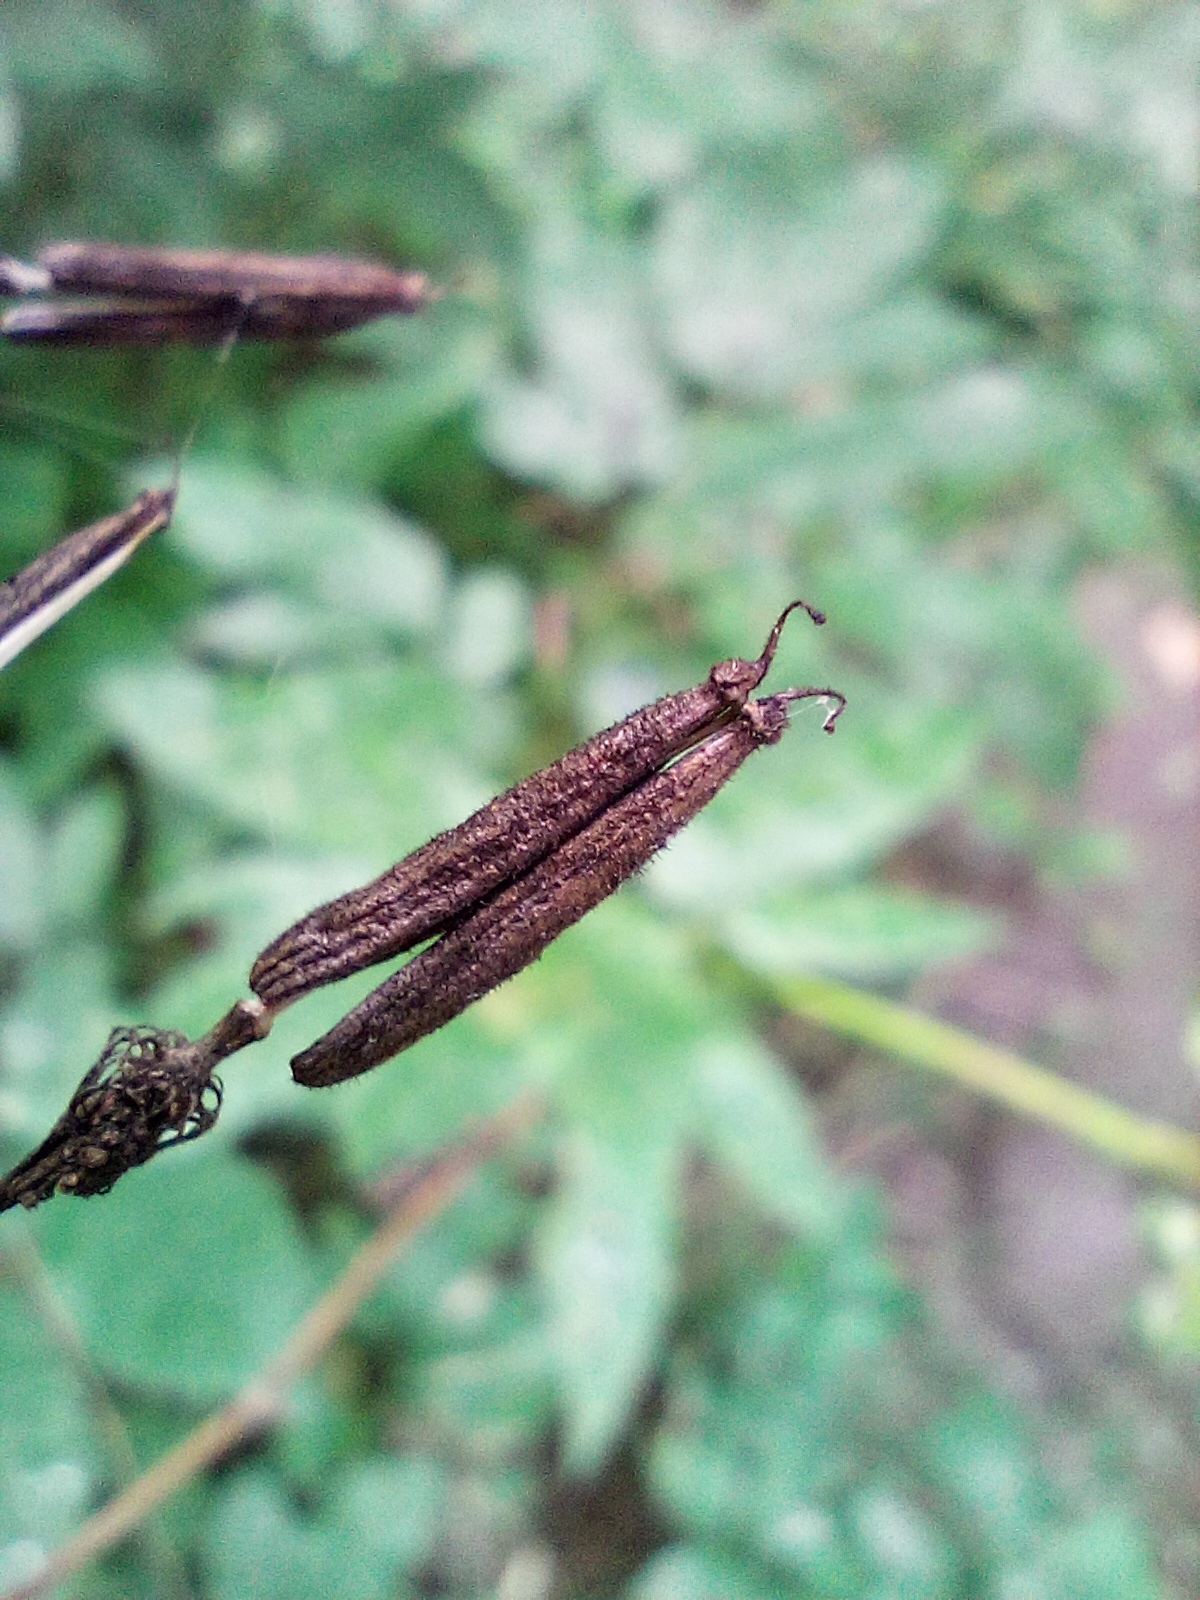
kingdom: Plantae
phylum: Tracheophyta
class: Magnoliopsida
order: Apiales
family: Apiaceae
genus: Chaerophyllum
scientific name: Chaerophyllum aromaticum
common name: Broadleaf chervil
